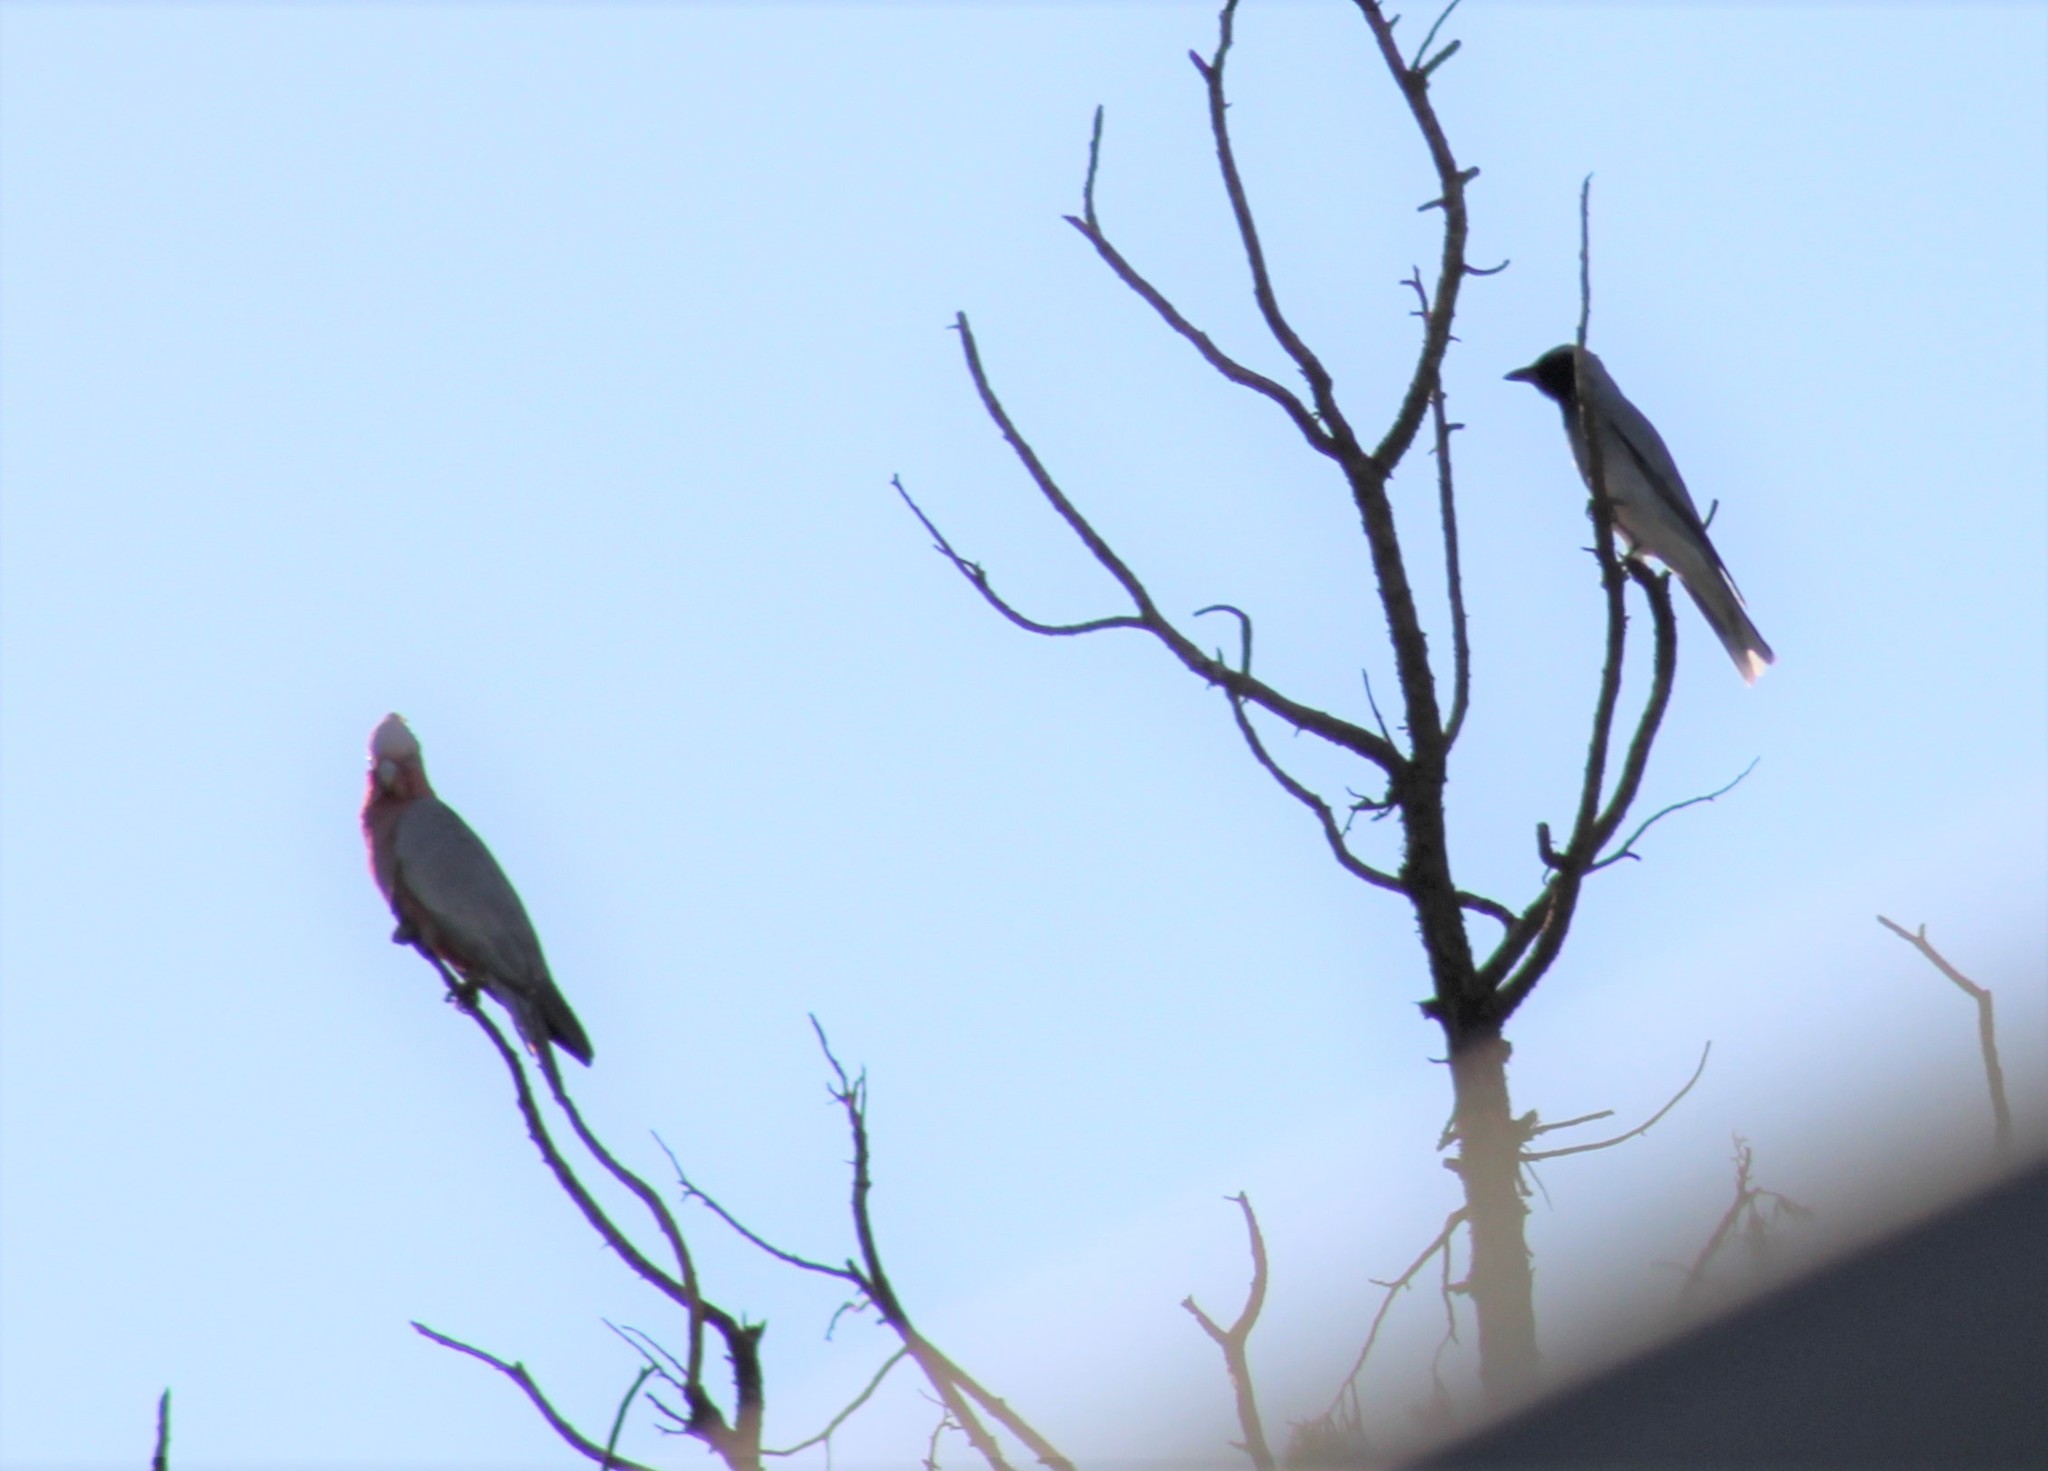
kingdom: Animalia
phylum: Chordata
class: Aves
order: Passeriformes
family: Campephagidae
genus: Coracina
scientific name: Coracina novaehollandiae
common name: Black-faced cuckooshrike
